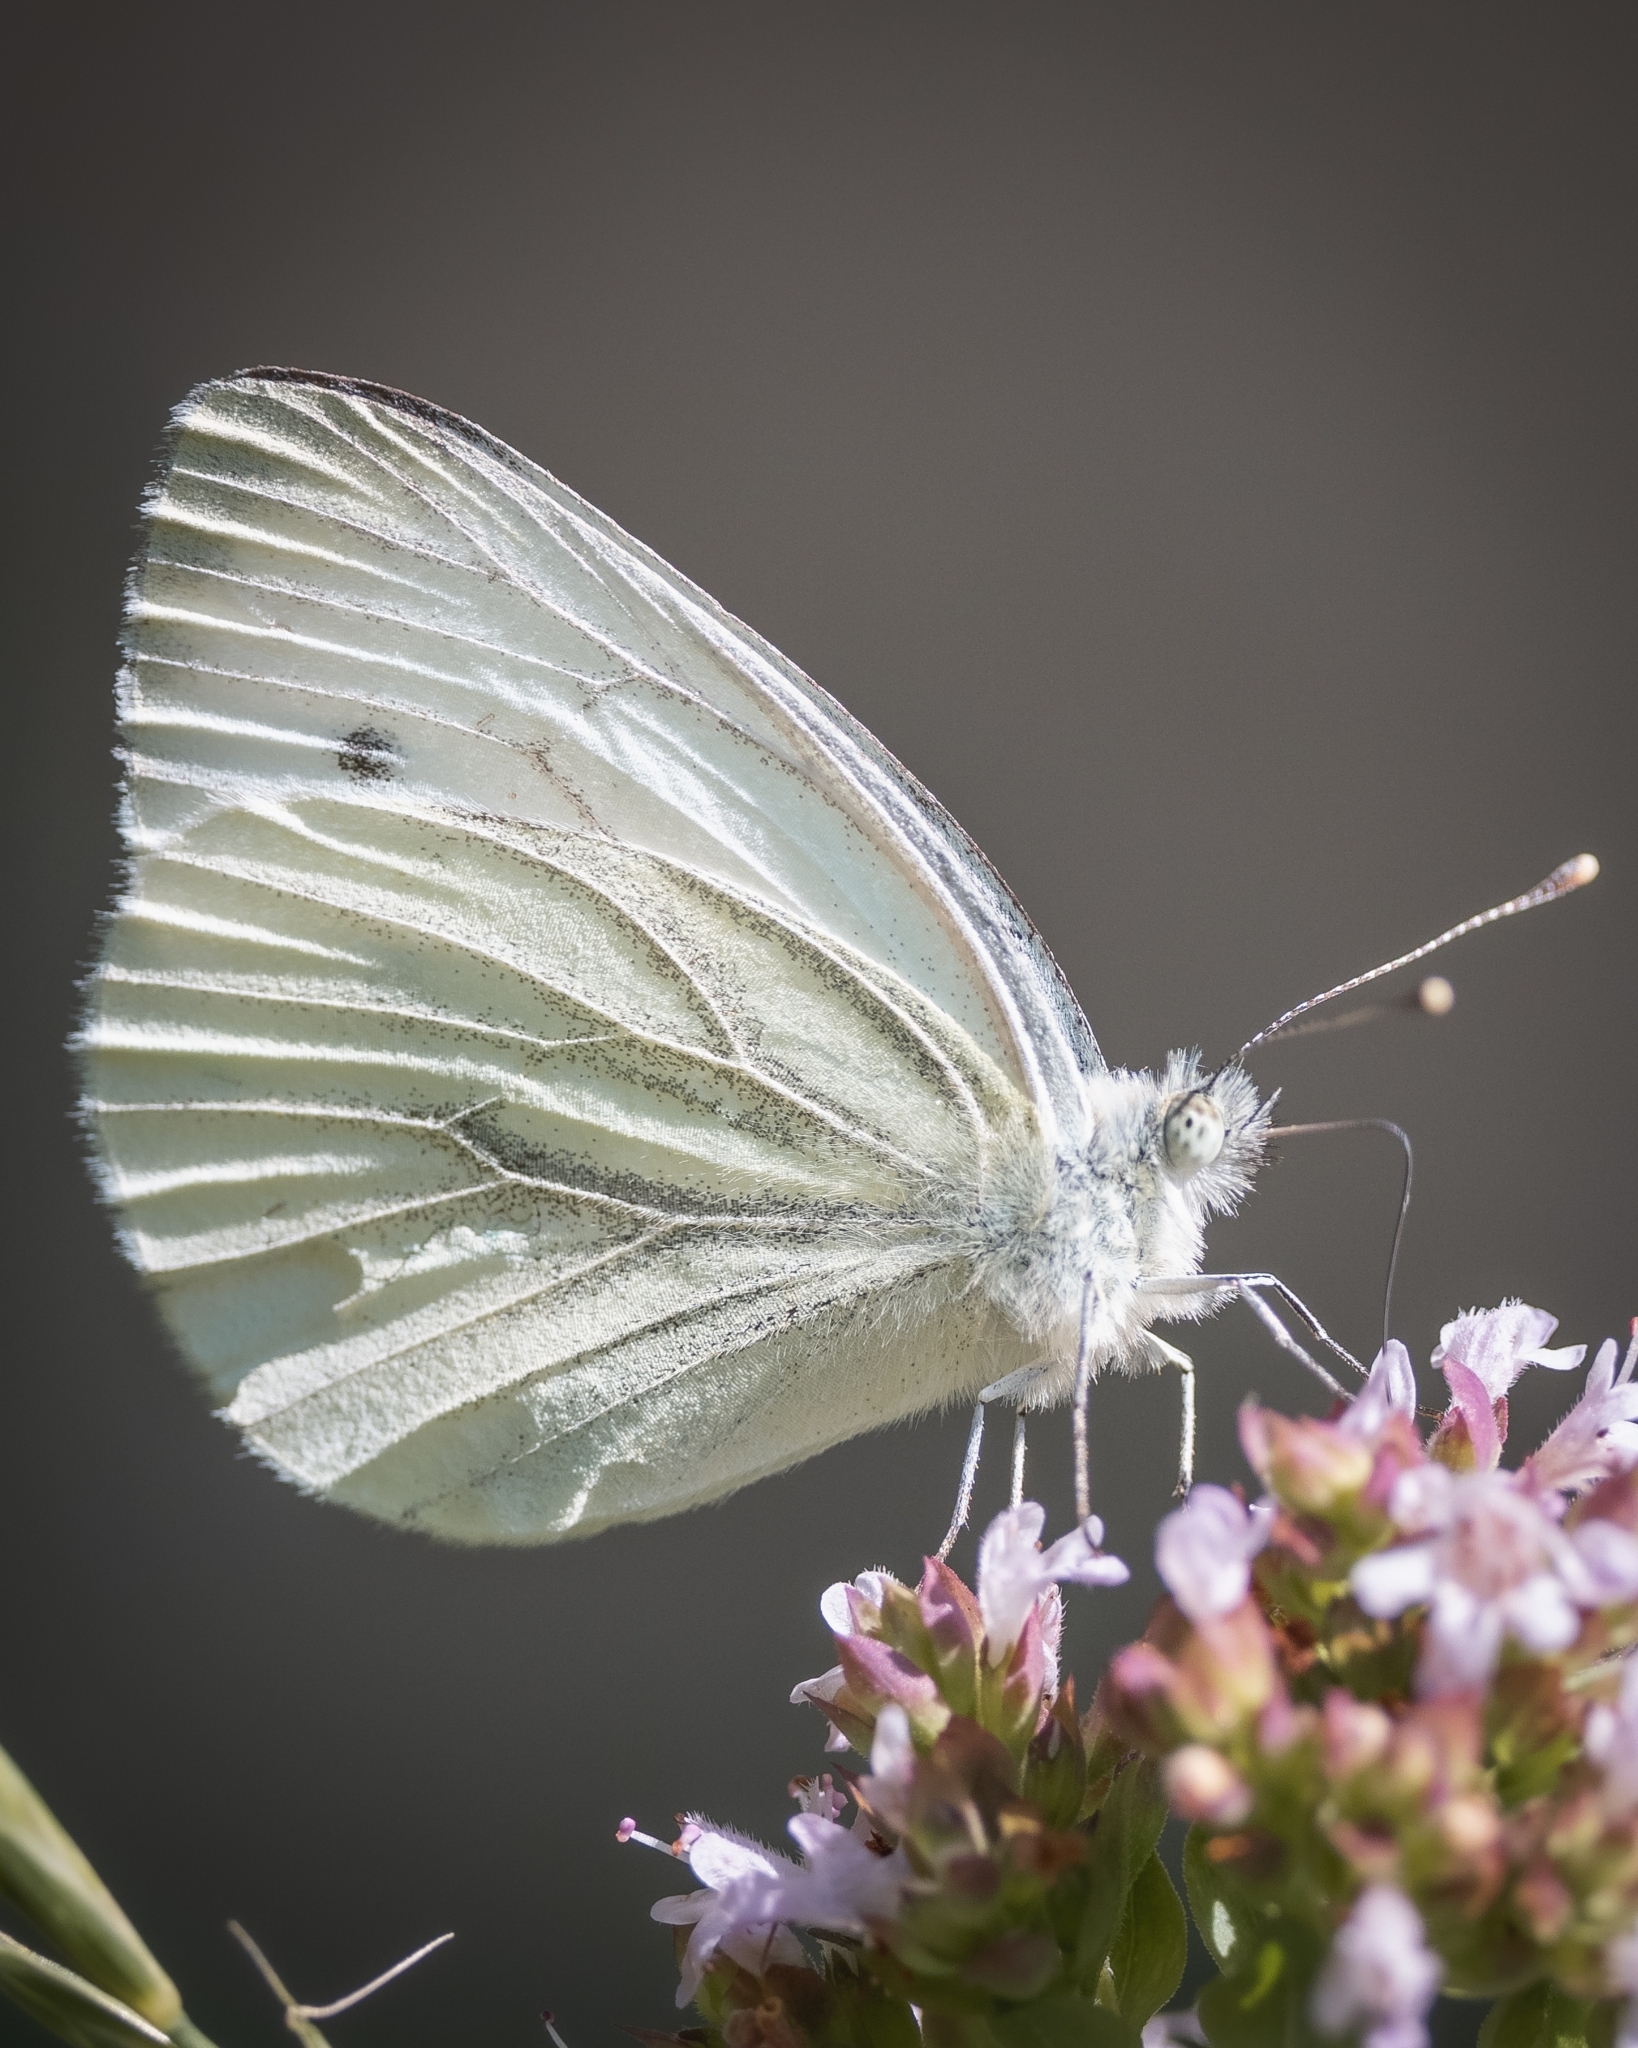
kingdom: Animalia
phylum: Arthropoda
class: Insecta
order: Lepidoptera
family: Pieridae
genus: Pieris
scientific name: Pieris napi
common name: Green-veined white
